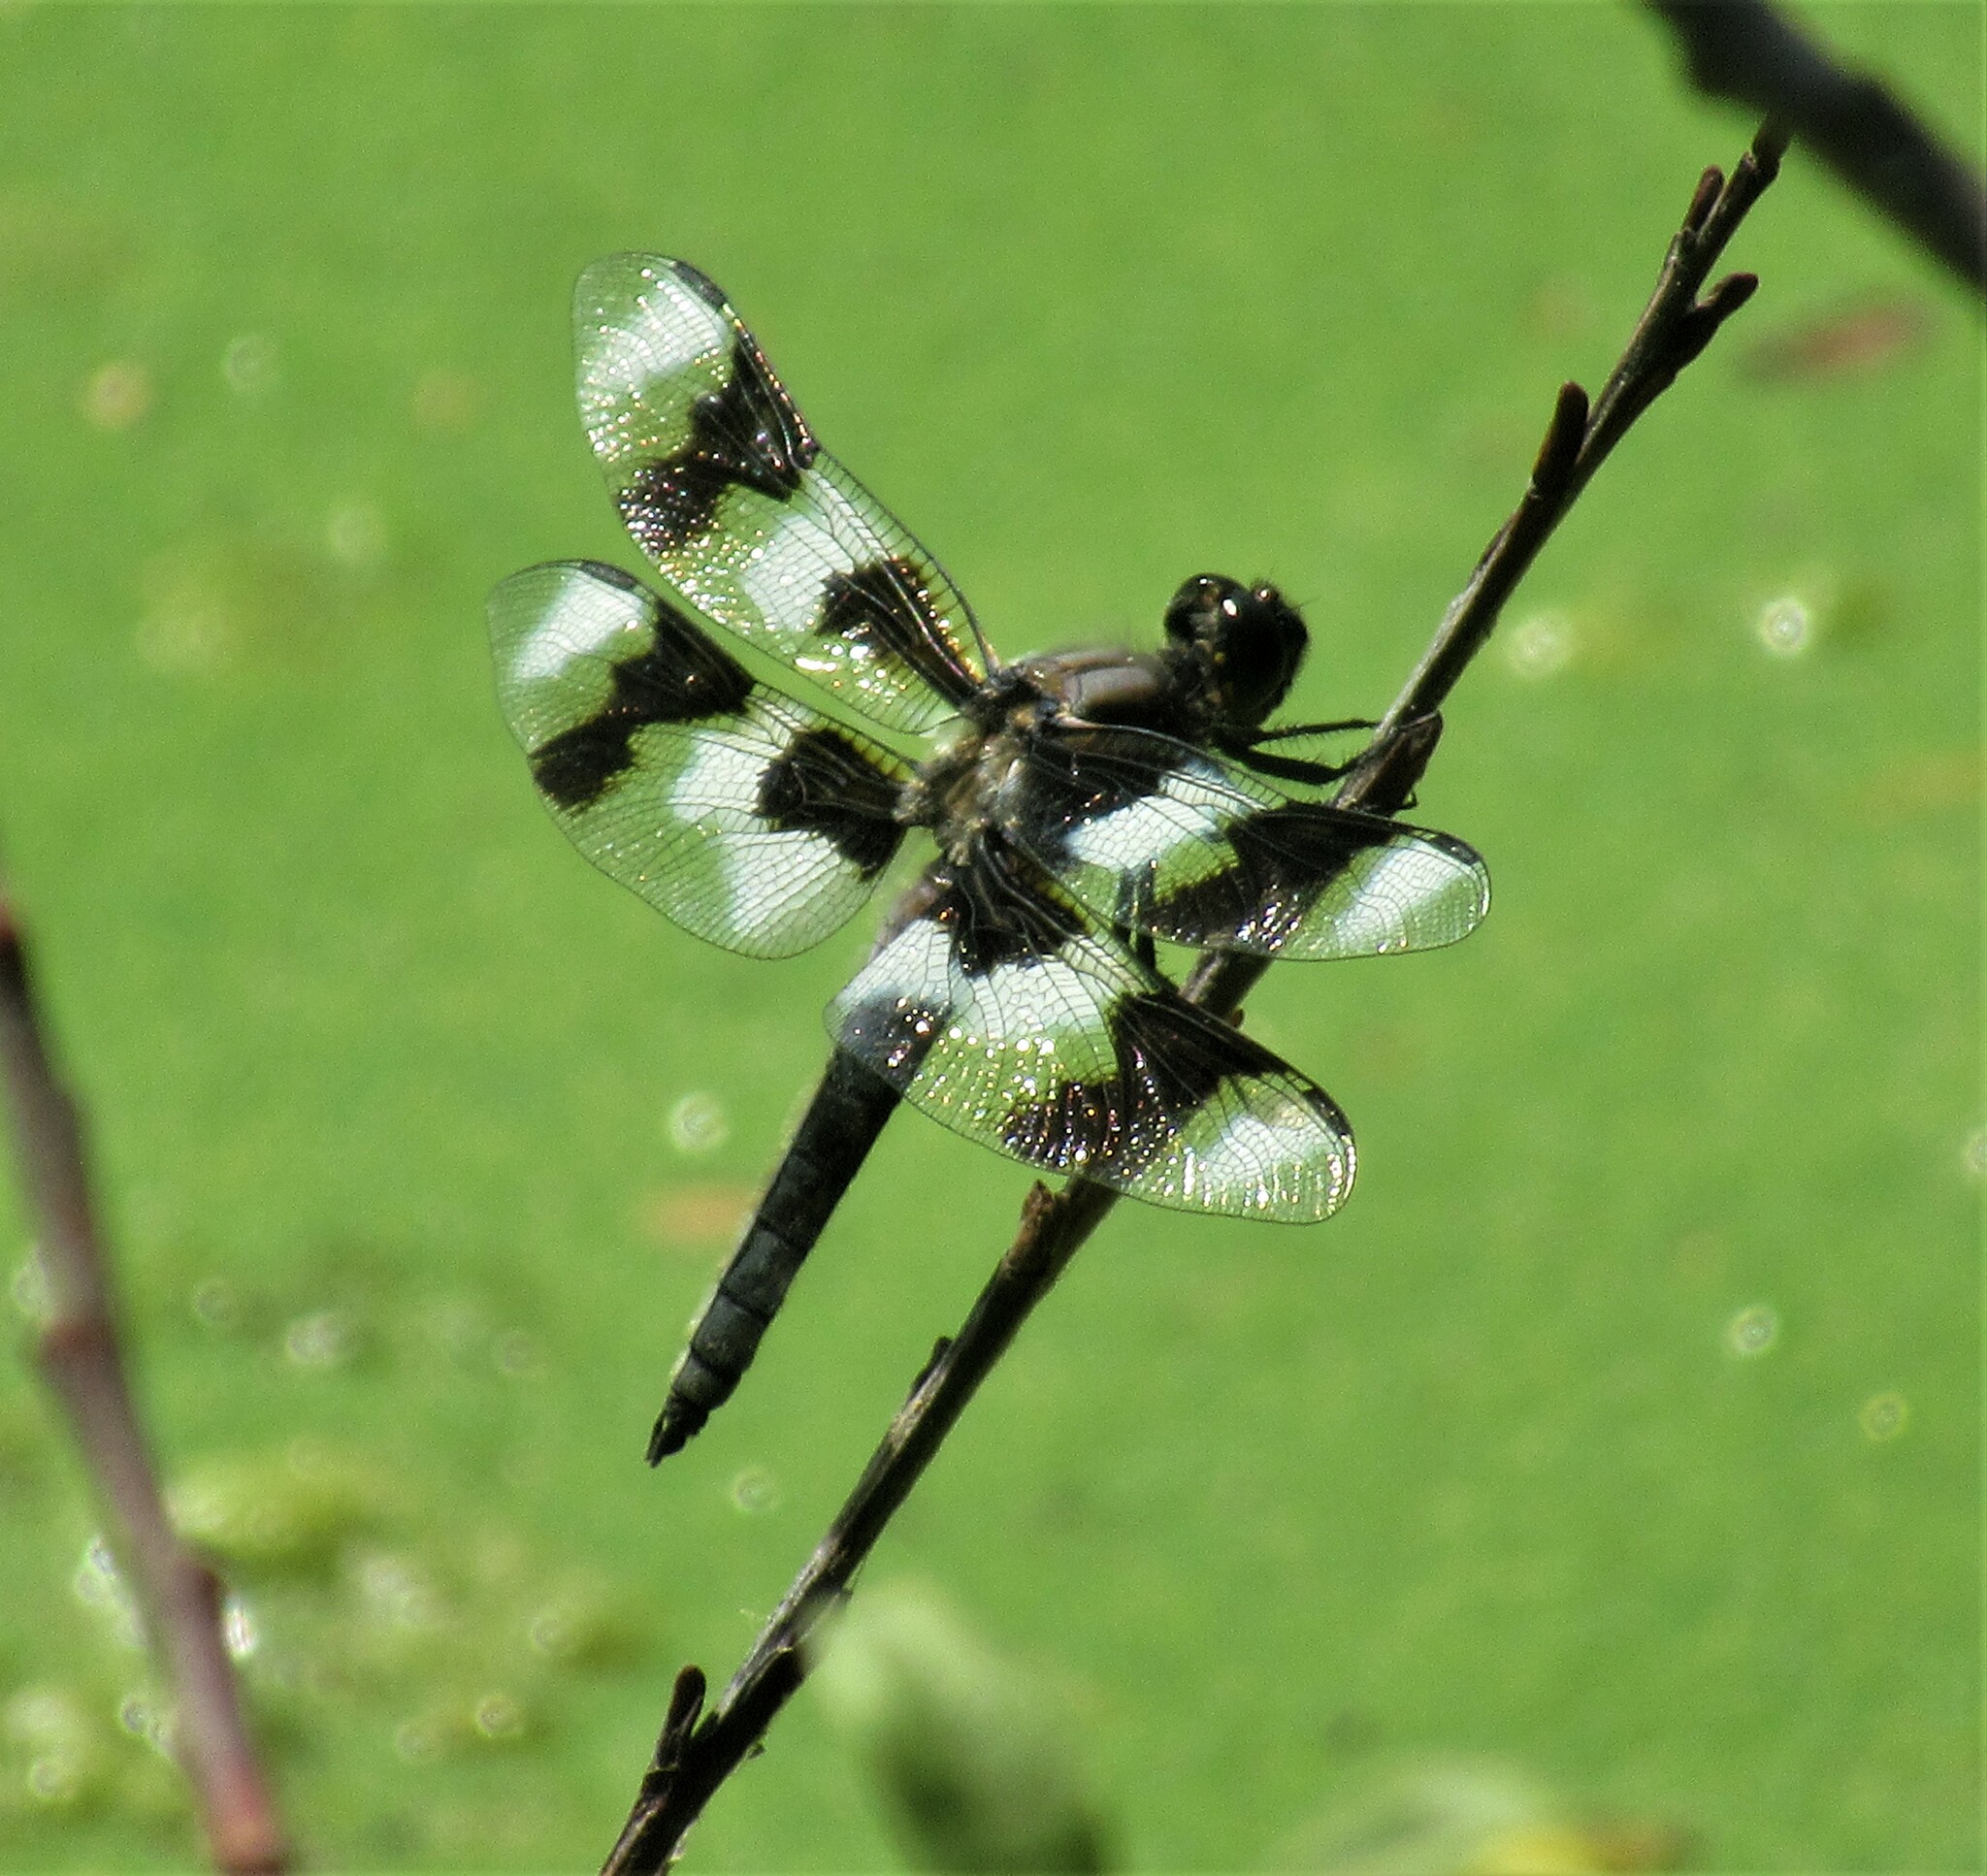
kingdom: Animalia
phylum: Arthropoda
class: Insecta
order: Odonata
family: Libellulidae
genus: Libellula
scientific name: Libellula forensis
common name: Eight-spotted skimmer
